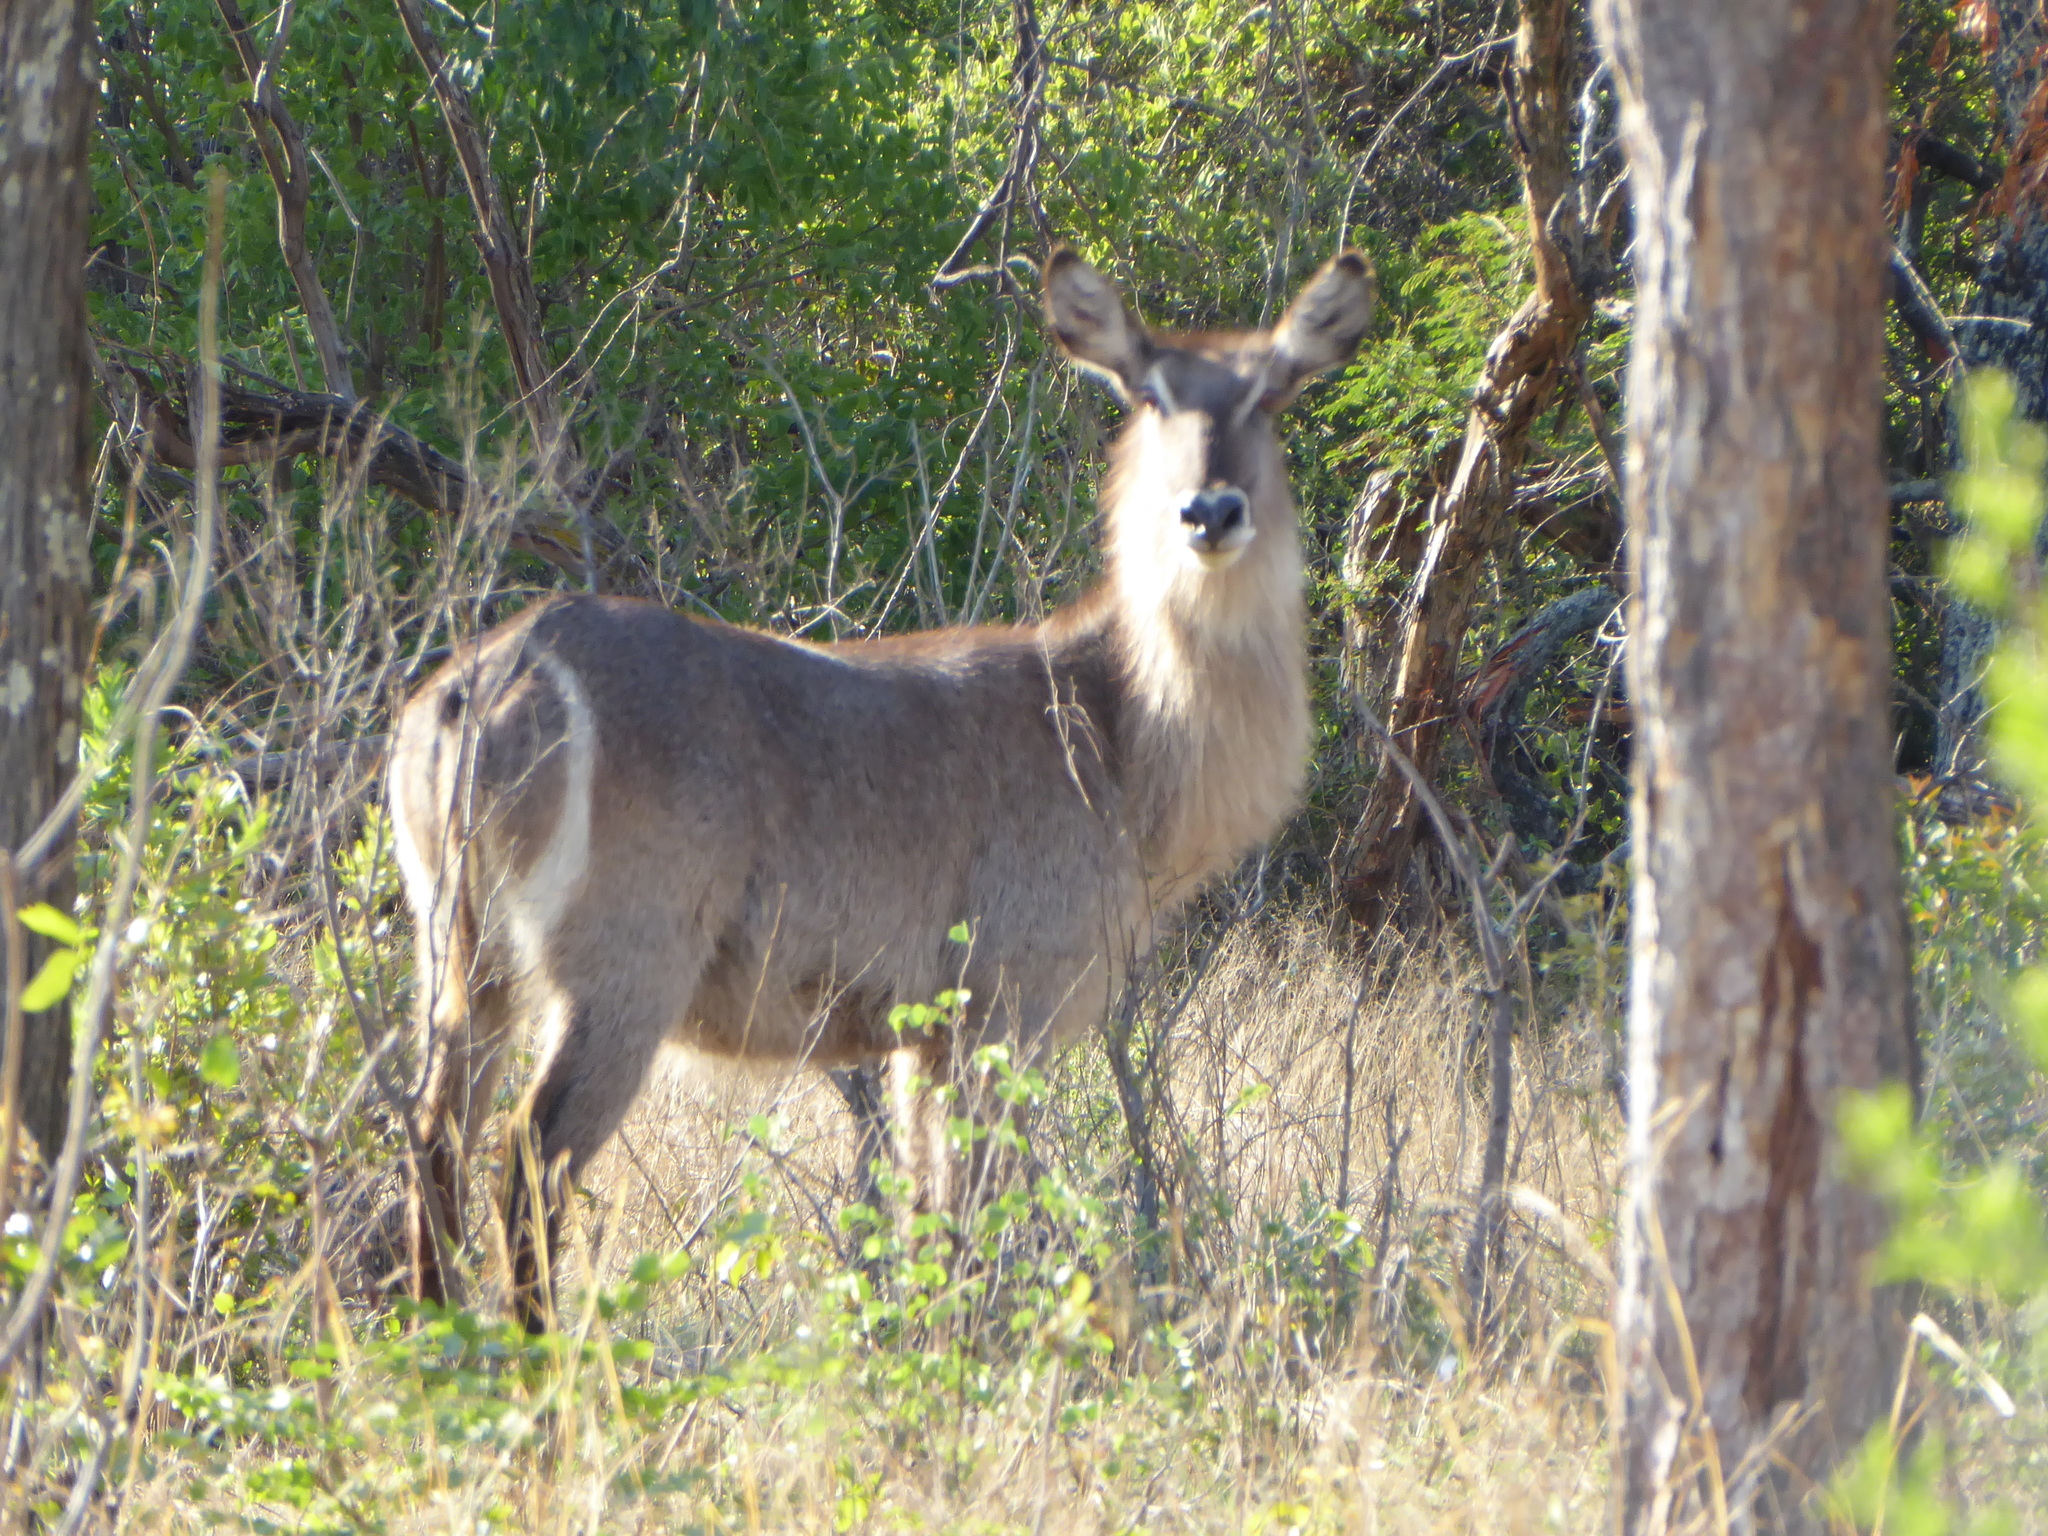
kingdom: Animalia
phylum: Chordata
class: Mammalia
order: Artiodactyla
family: Bovidae
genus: Kobus
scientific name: Kobus ellipsiprymnus
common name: Waterbuck
